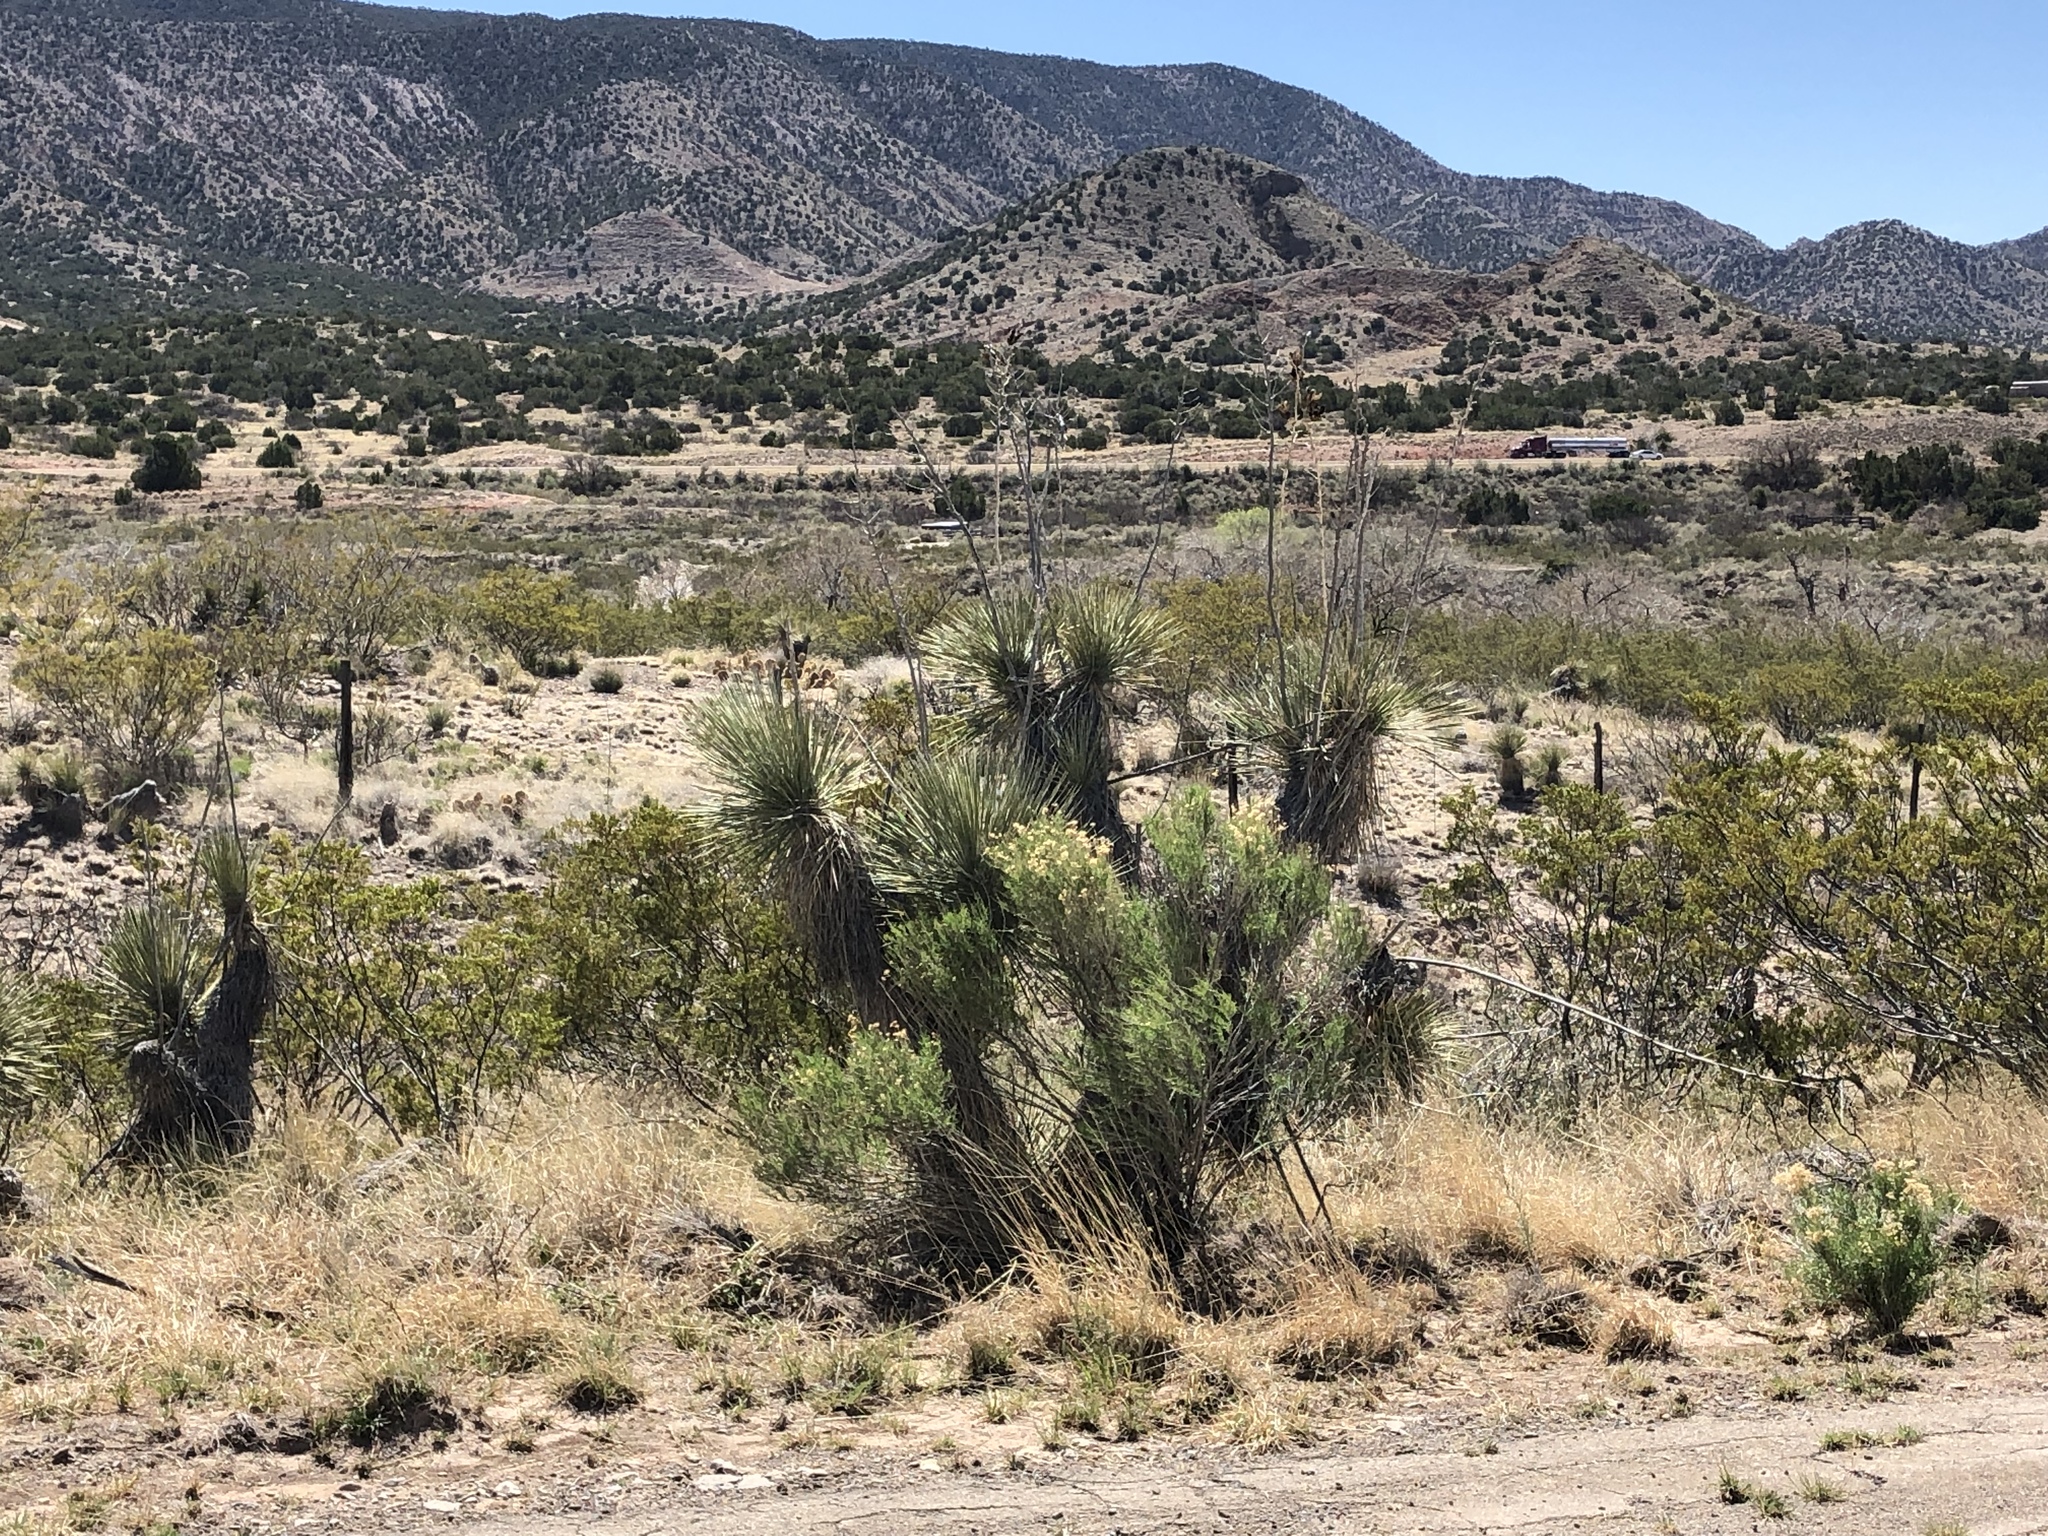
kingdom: Plantae
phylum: Tracheophyta
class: Liliopsida
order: Asparagales
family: Asparagaceae
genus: Yucca
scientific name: Yucca elata
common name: Palmella
